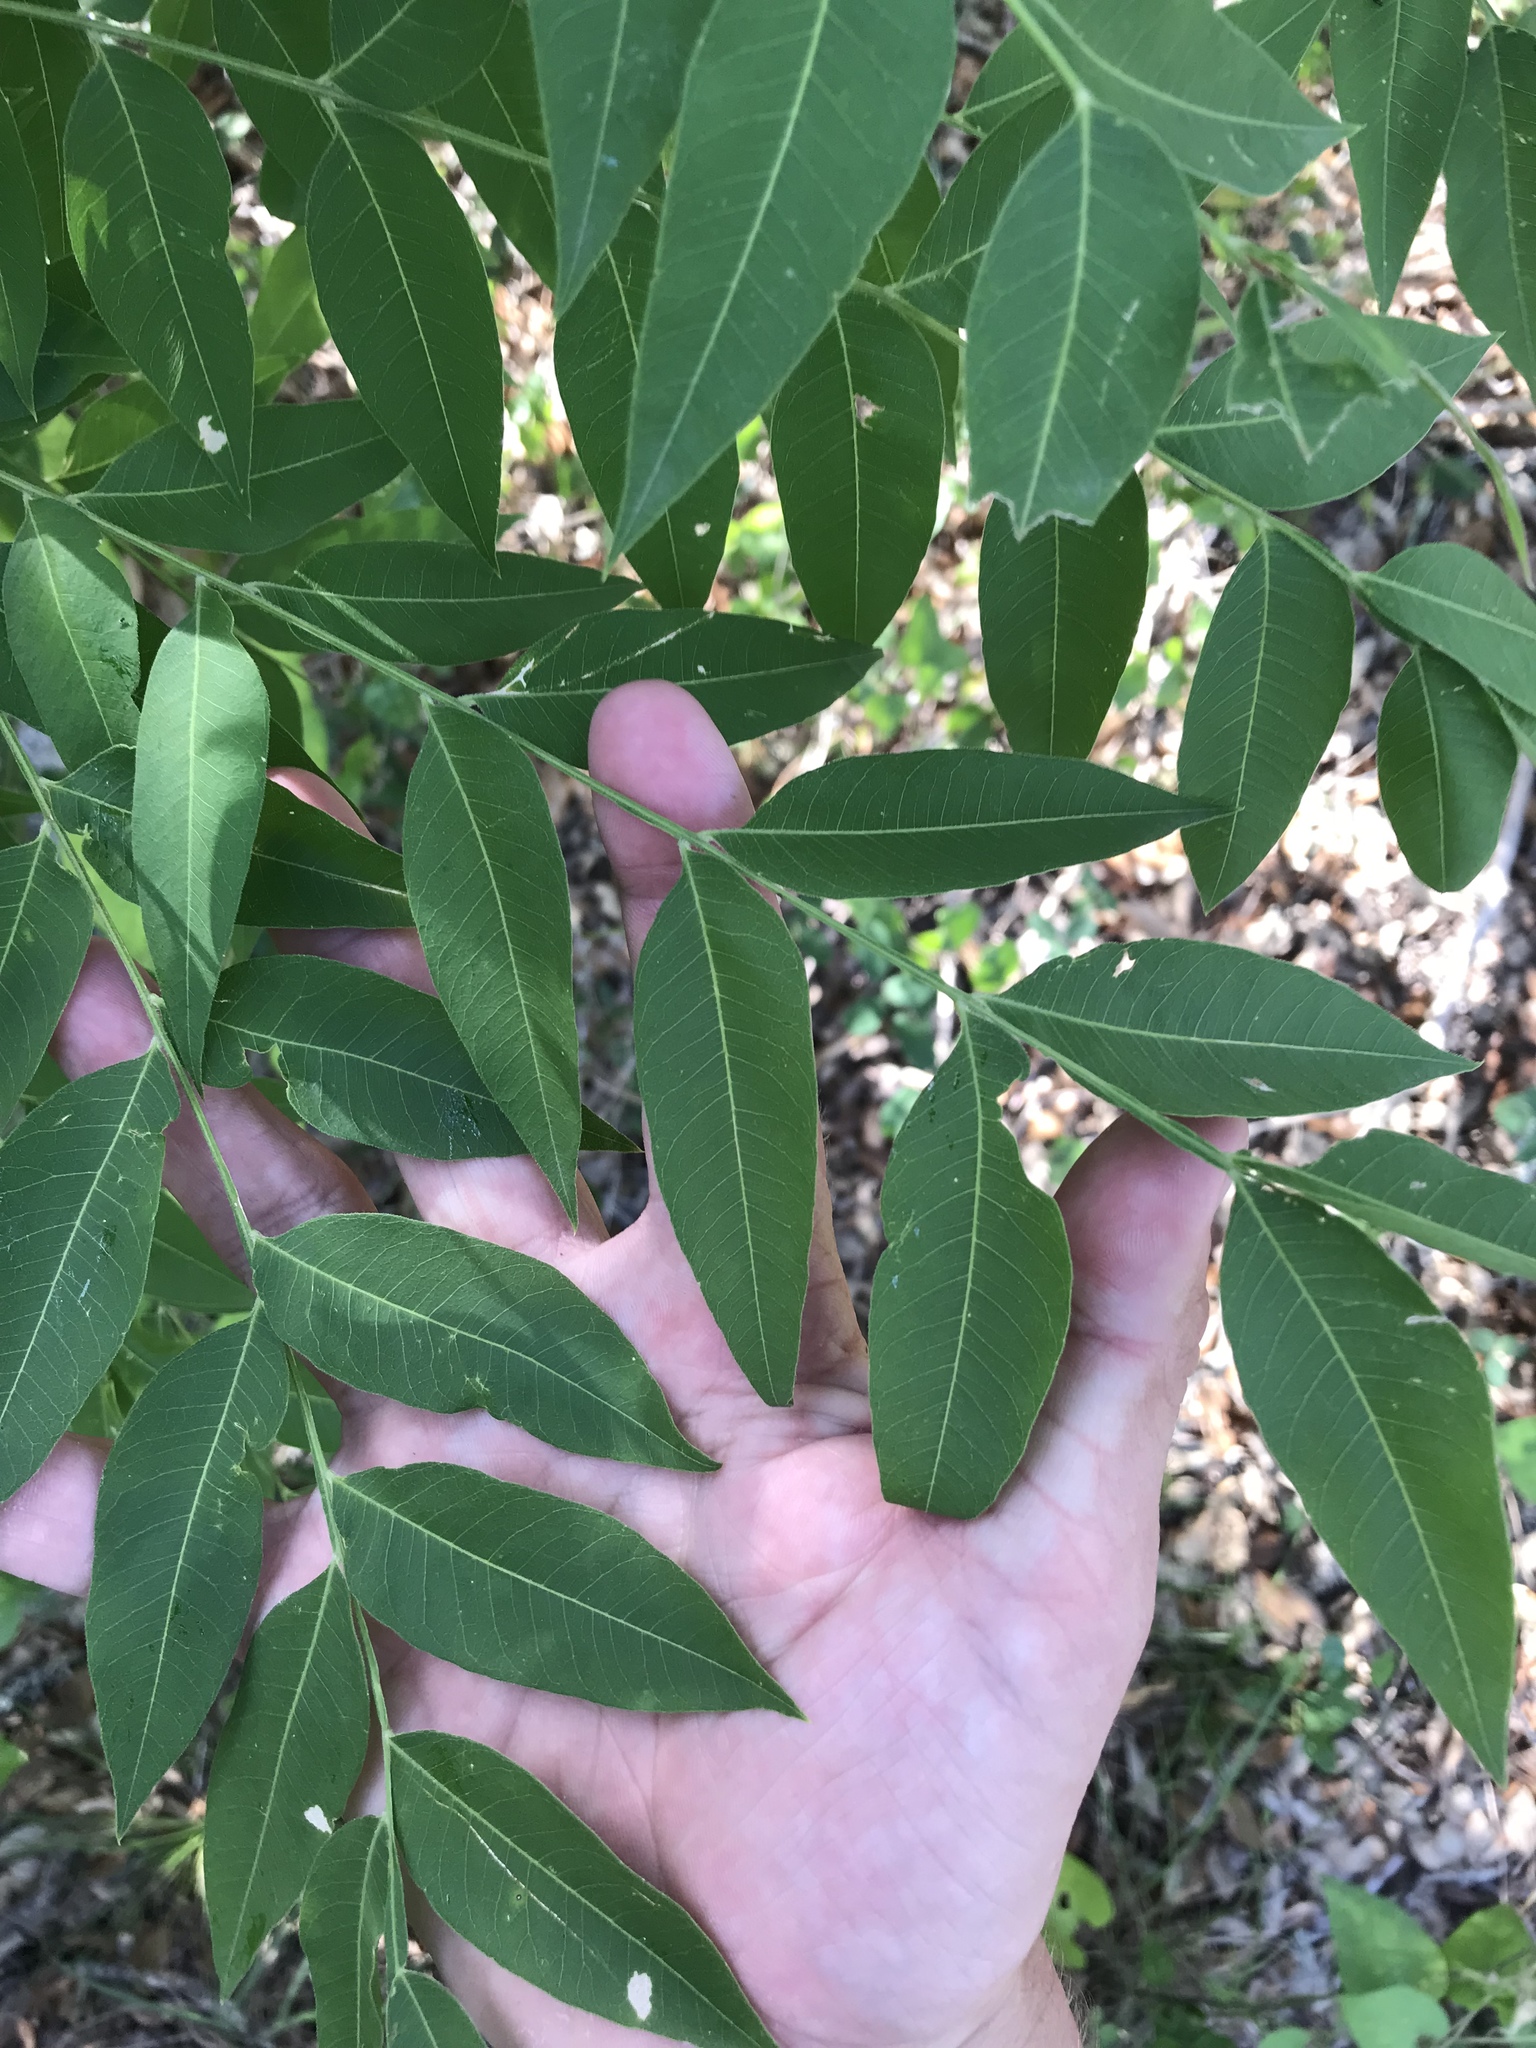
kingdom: Plantae
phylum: Tracheophyta
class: Magnoliopsida
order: Sapindales
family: Sapindaceae
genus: Sapindus
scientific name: Sapindus drummondii
